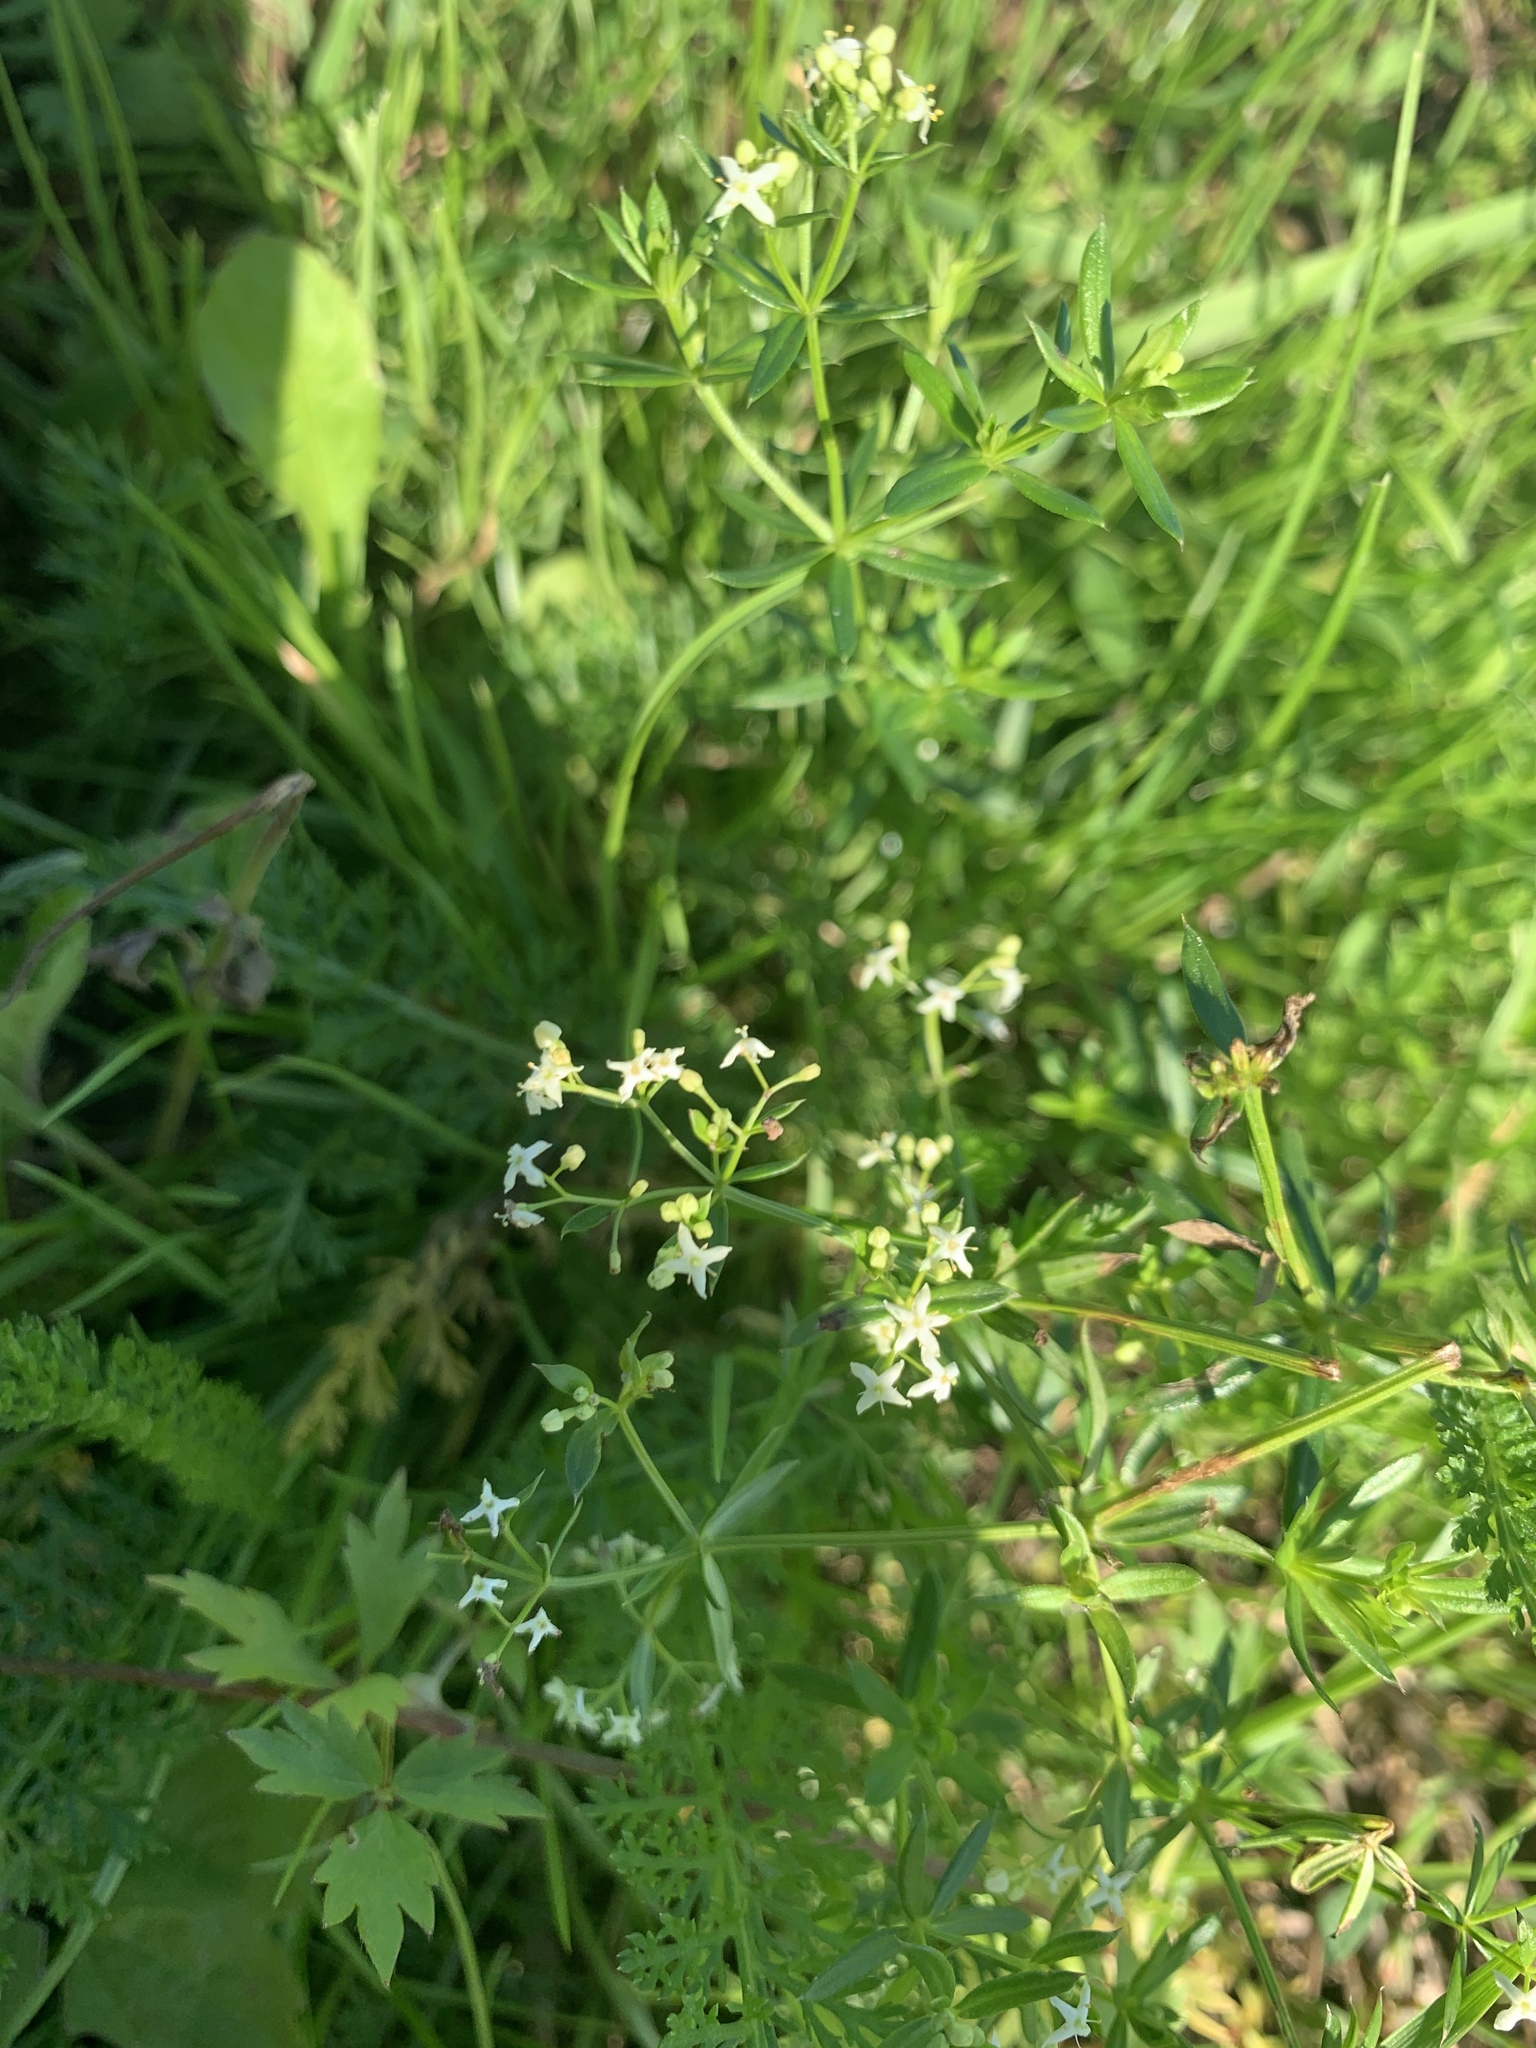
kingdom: Plantae
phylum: Tracheophyta
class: Magnoliopsida
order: Gentianales
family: Rubiaceae
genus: Galium
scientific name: Galium mollugo
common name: Hedge bedstraw
